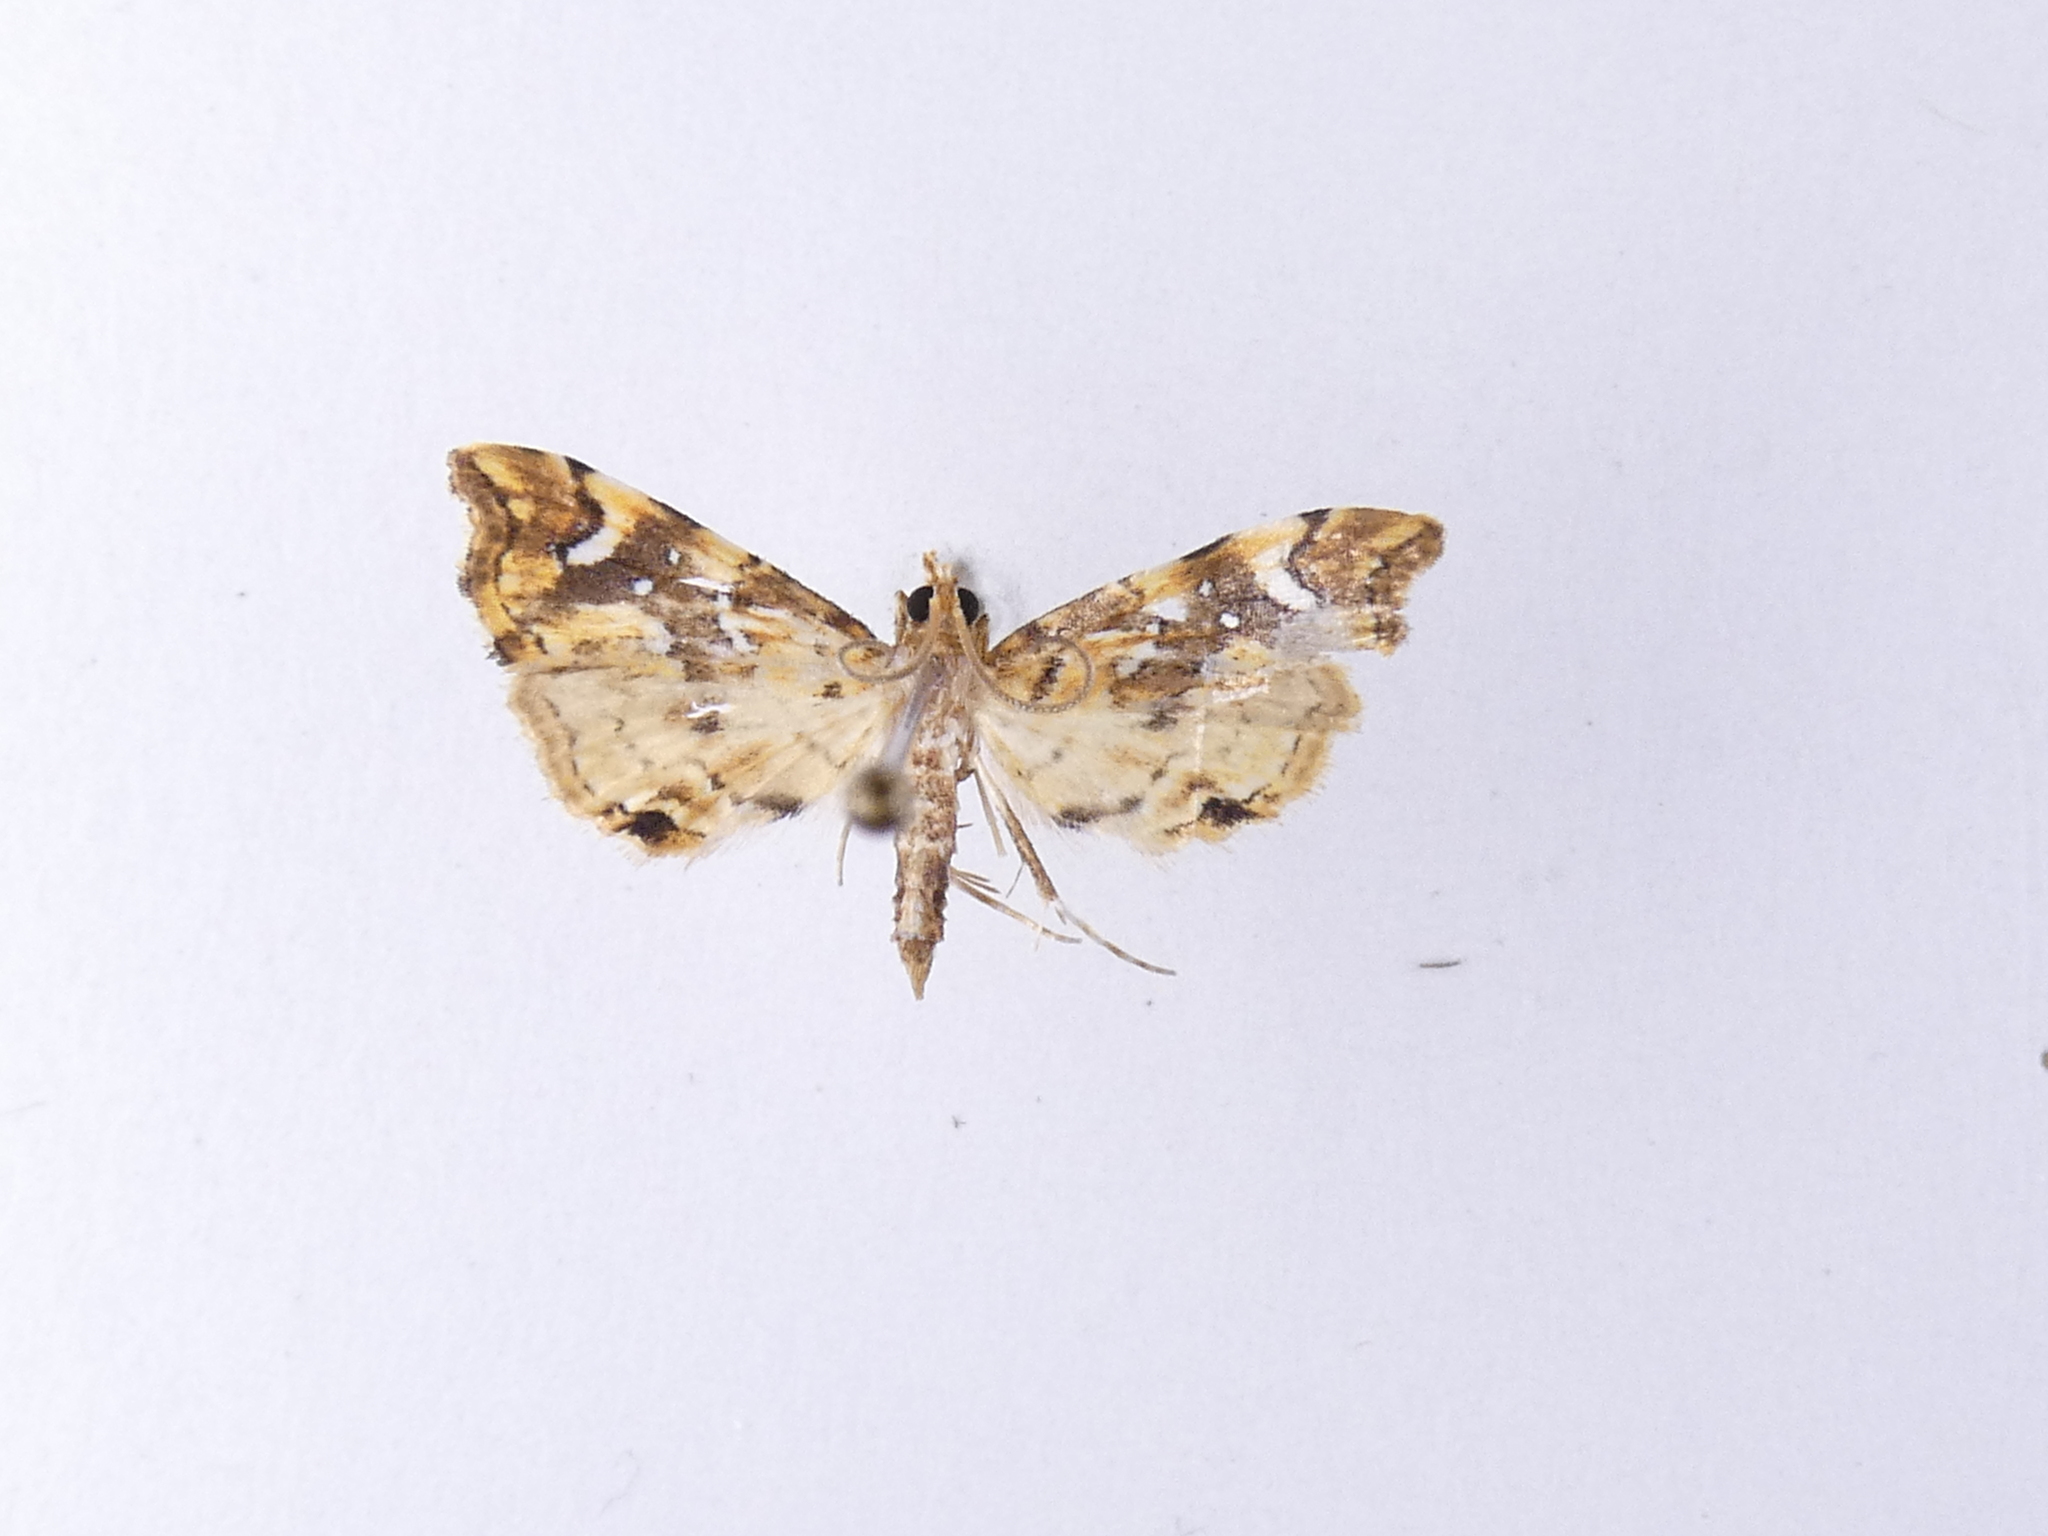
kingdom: Animalia
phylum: Arthropoda
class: Insecta
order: Lepidoptera
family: Pyralidae
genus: Musotima
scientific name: Musotima nitidalis
